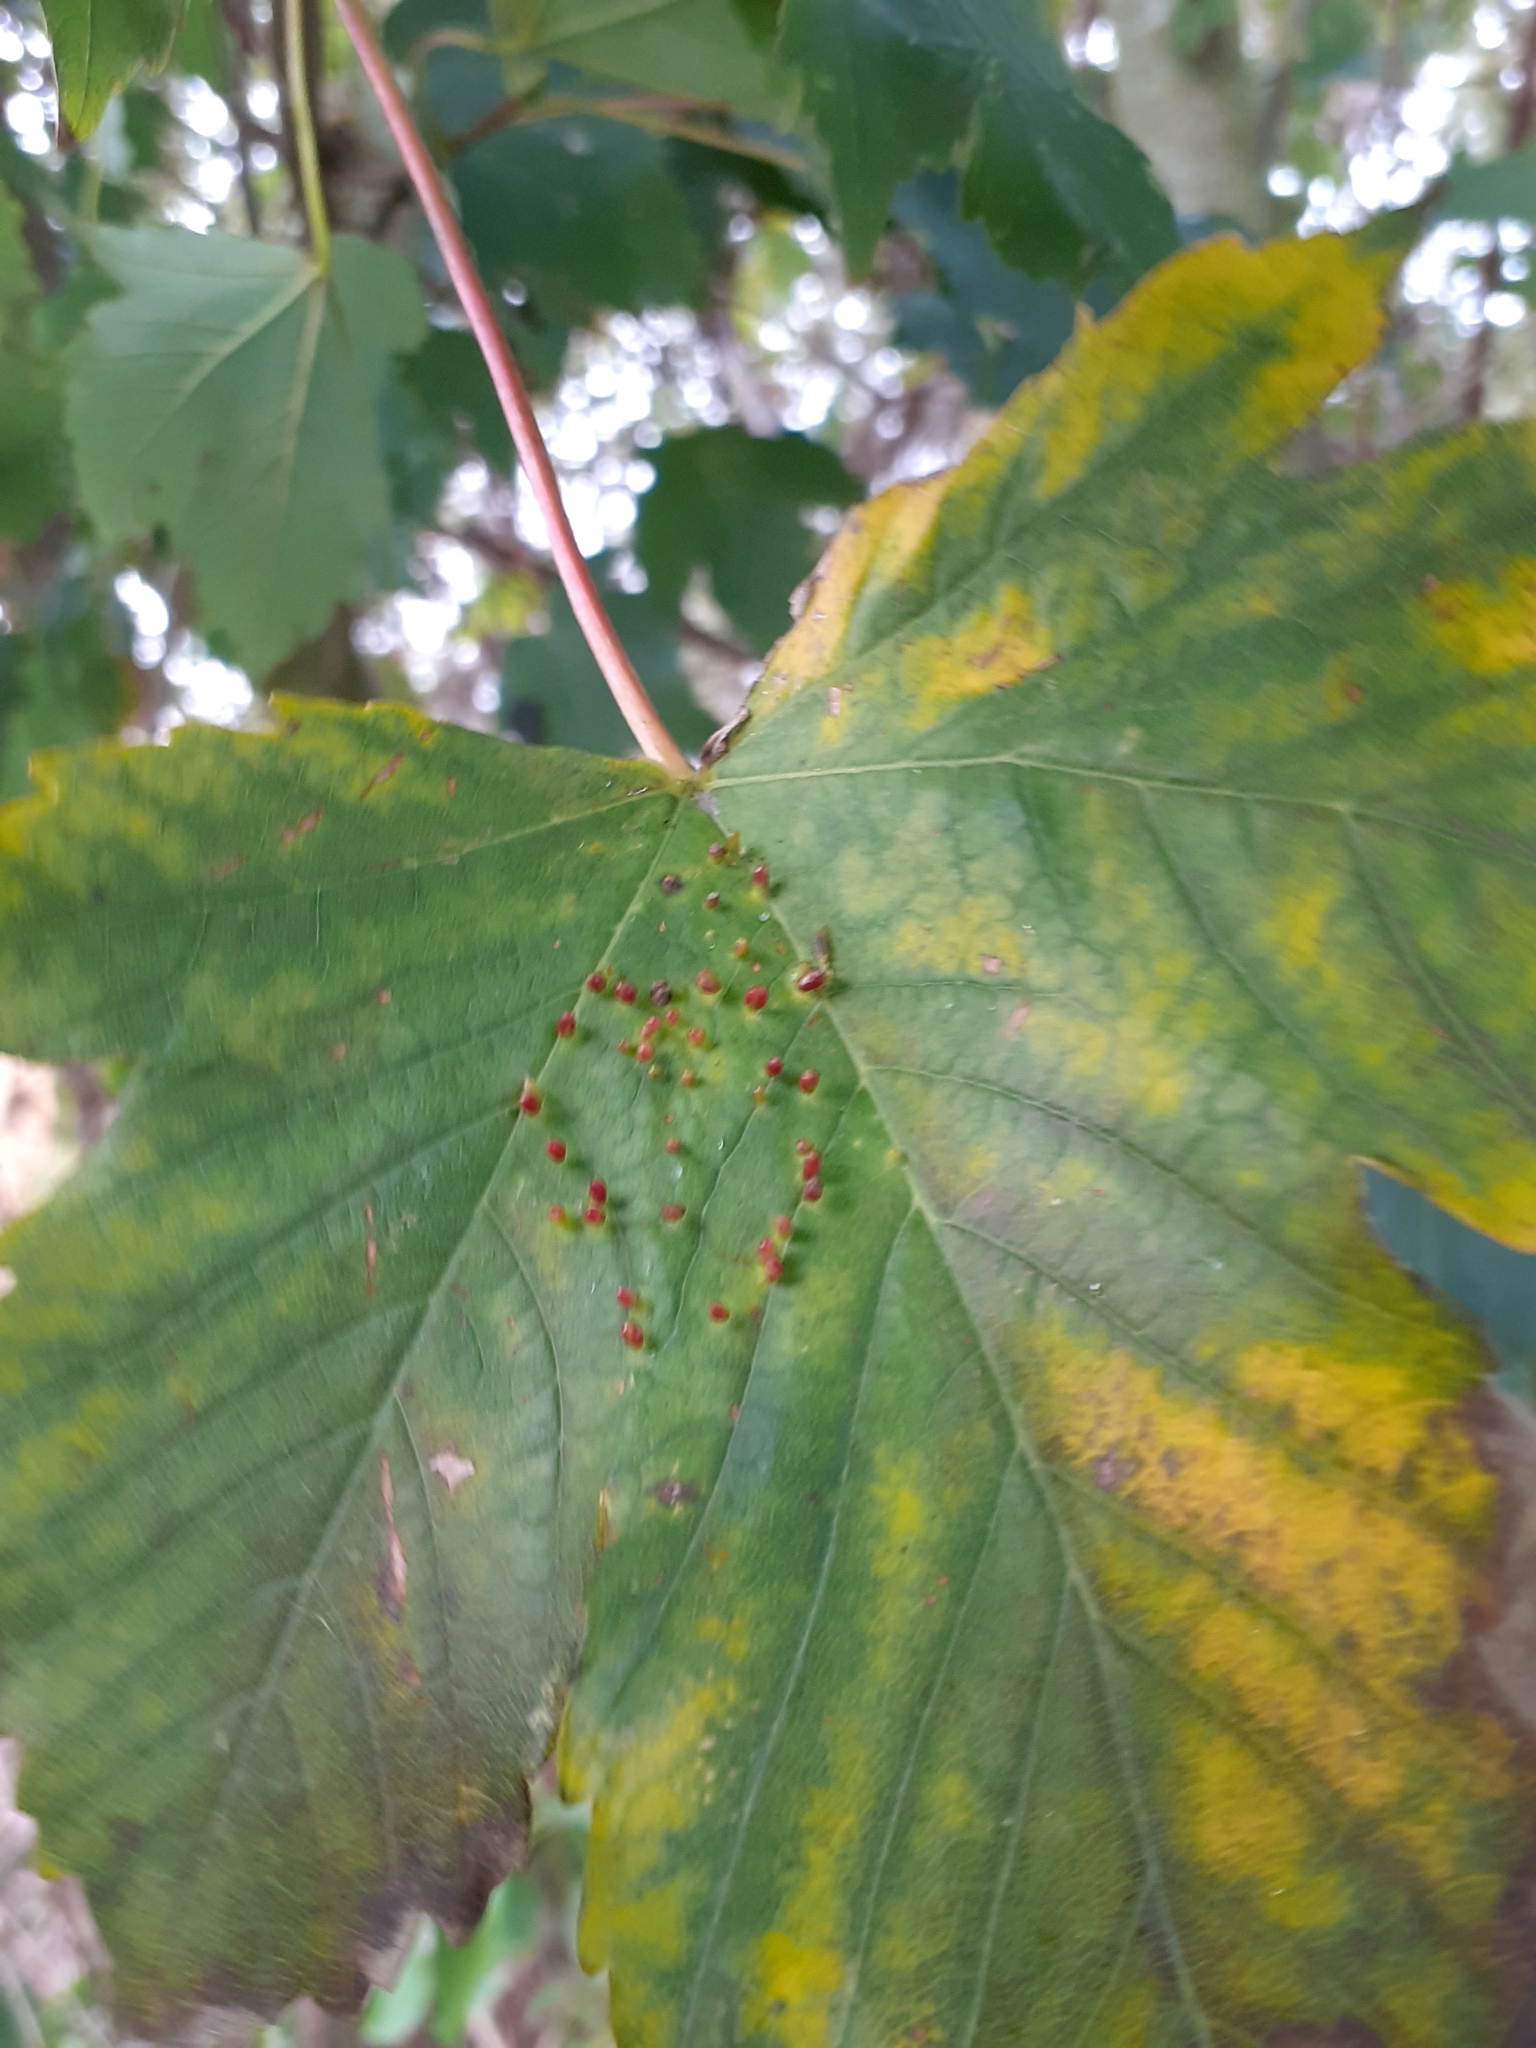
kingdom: Animalia
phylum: Arthropoda
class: Arachnida
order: Trombidiformes
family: Eriophyidae
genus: Aceria
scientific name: Aceria cephaloneus
